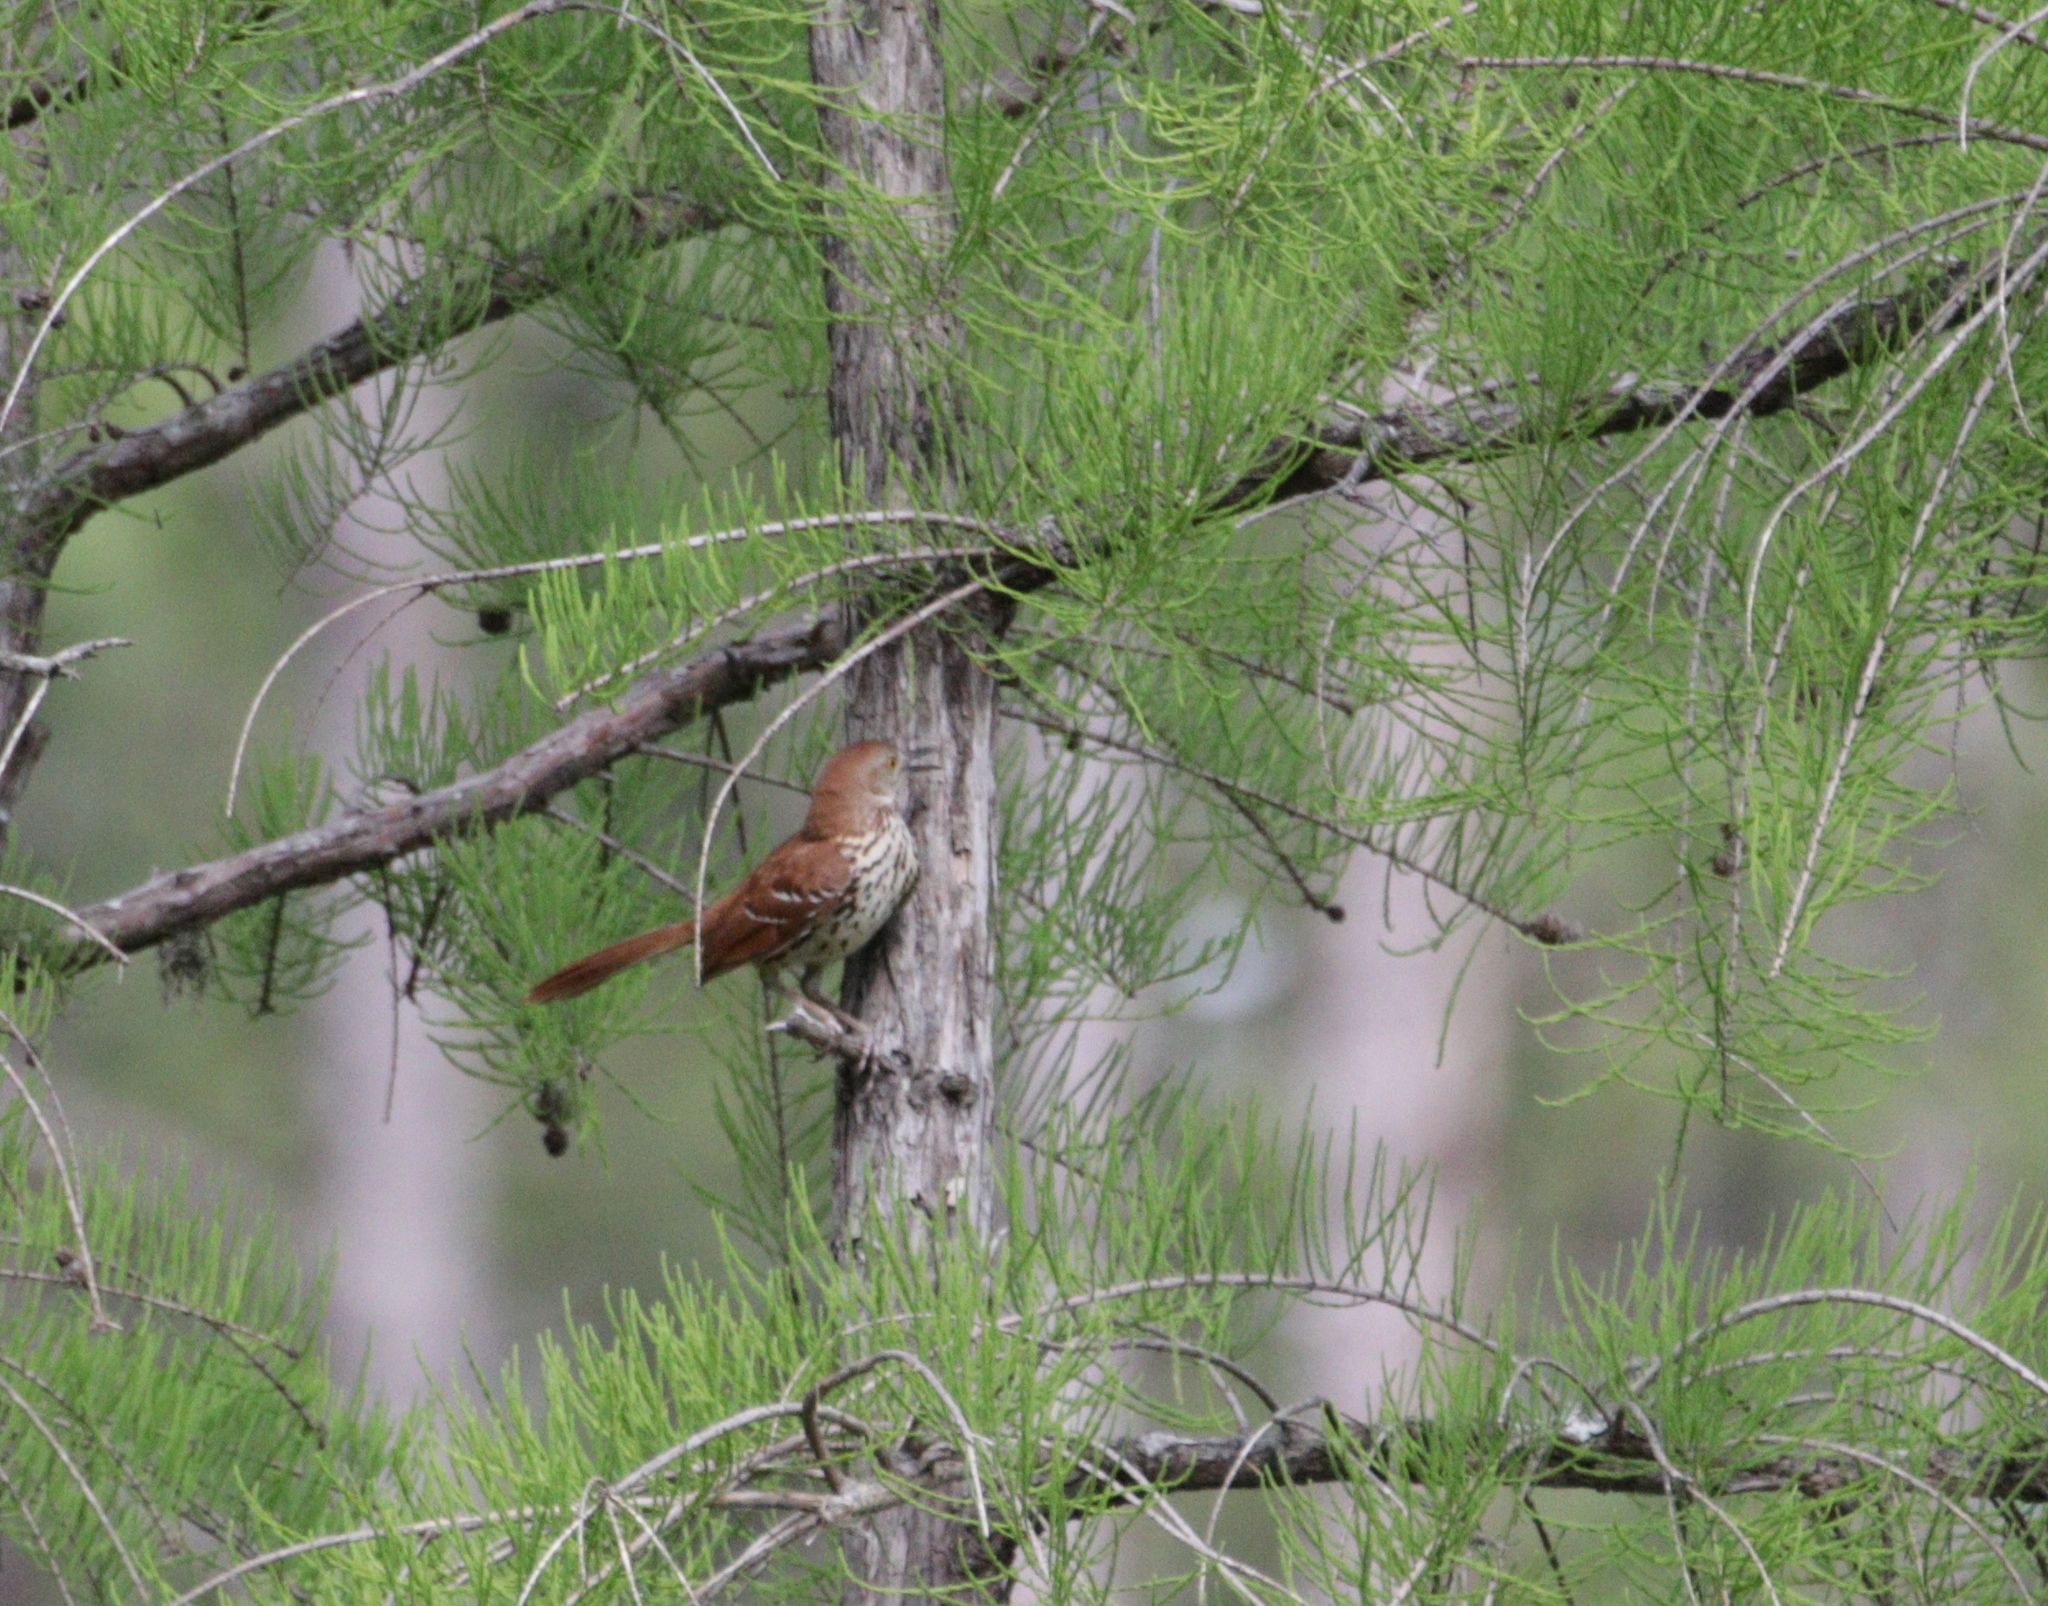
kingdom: Animalia
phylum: Chordata
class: Aves
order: Passeriformes
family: Mimidae
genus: Toxostoma
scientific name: Toxostoma rufum
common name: Brown thrasher
